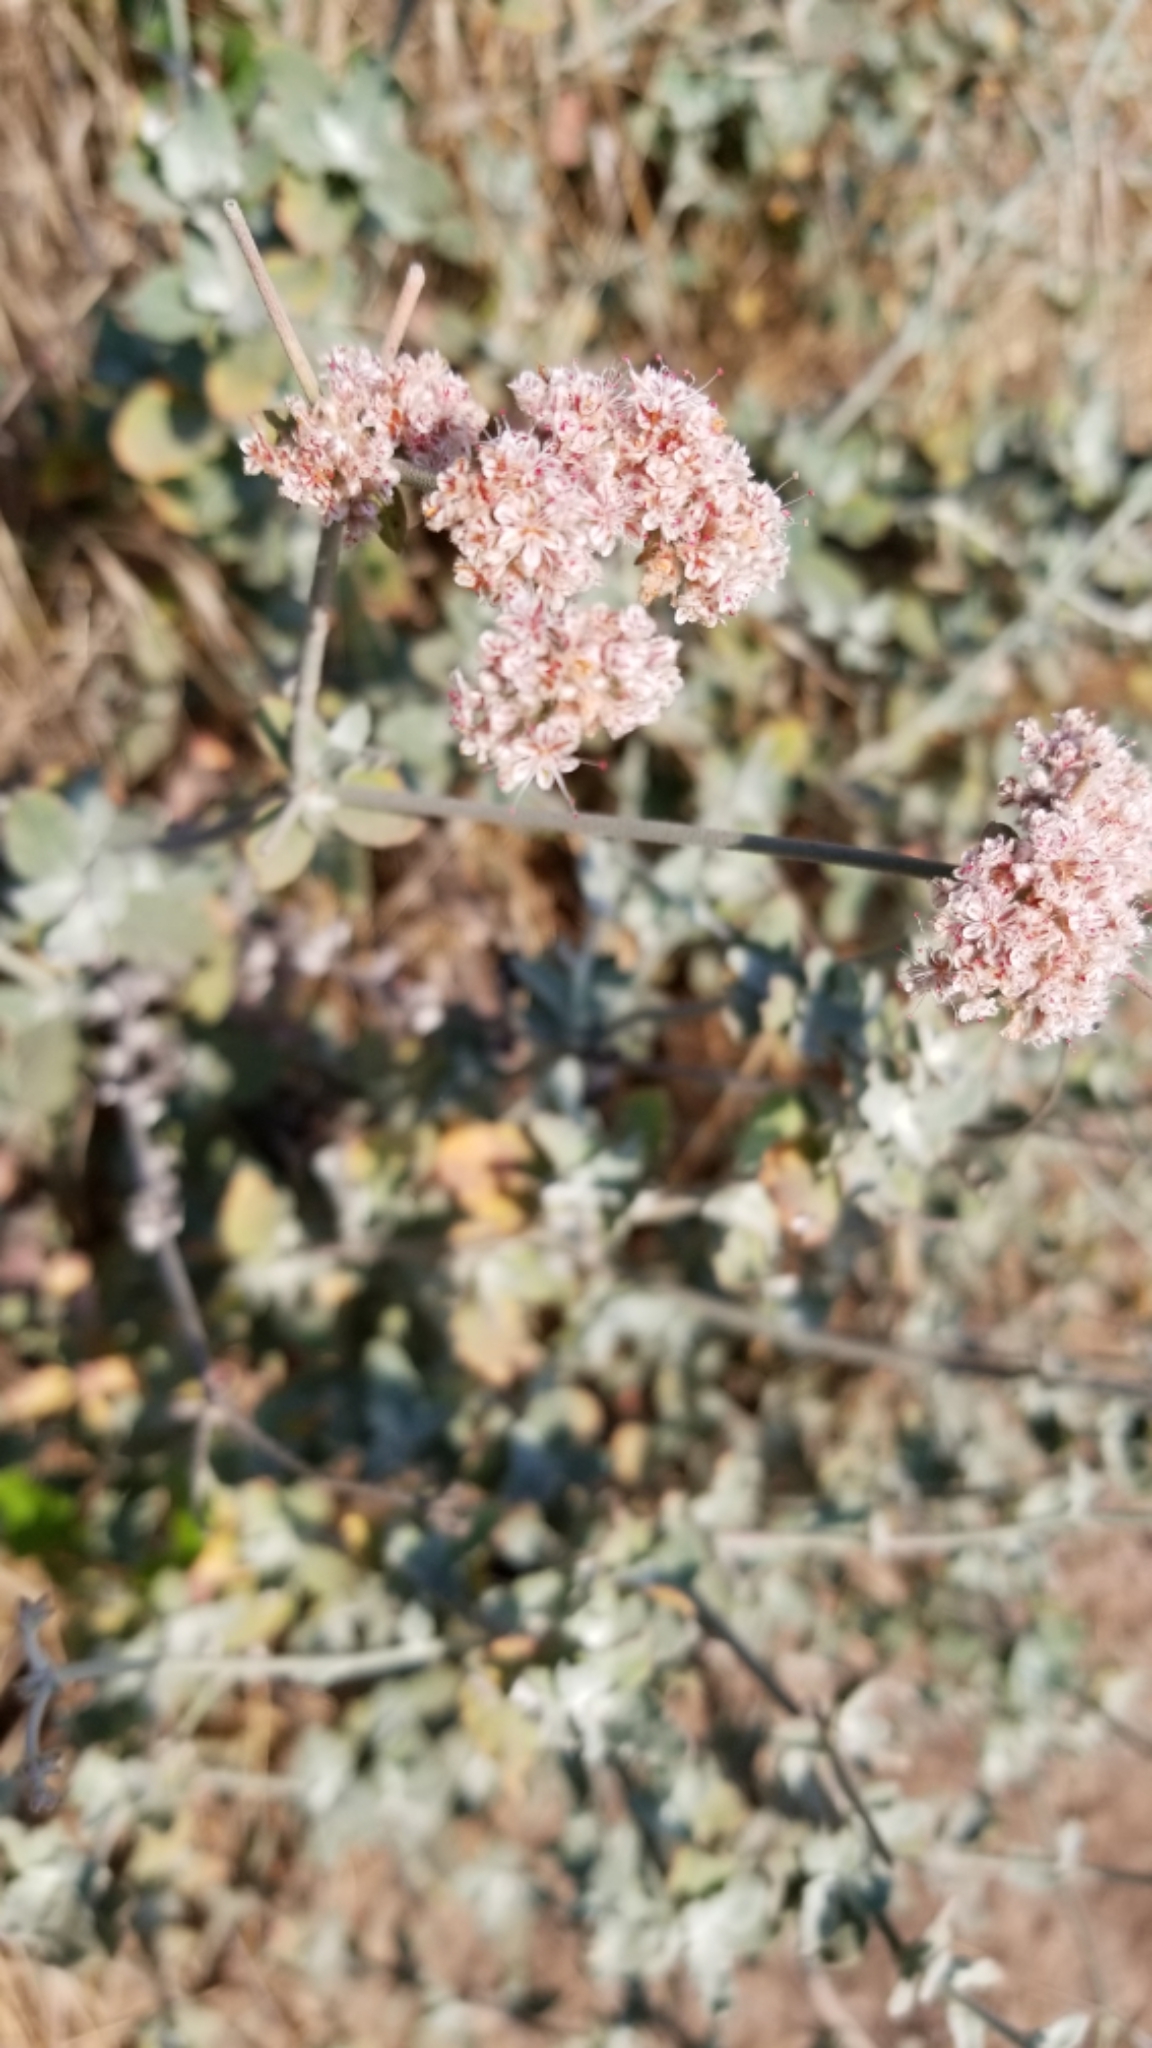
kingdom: Plantae
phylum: Tracheophyta
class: Magnoliopsida
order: Caryophyllales
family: Polygonaceae
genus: Eriogonum
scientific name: Eriogonum cinereum
